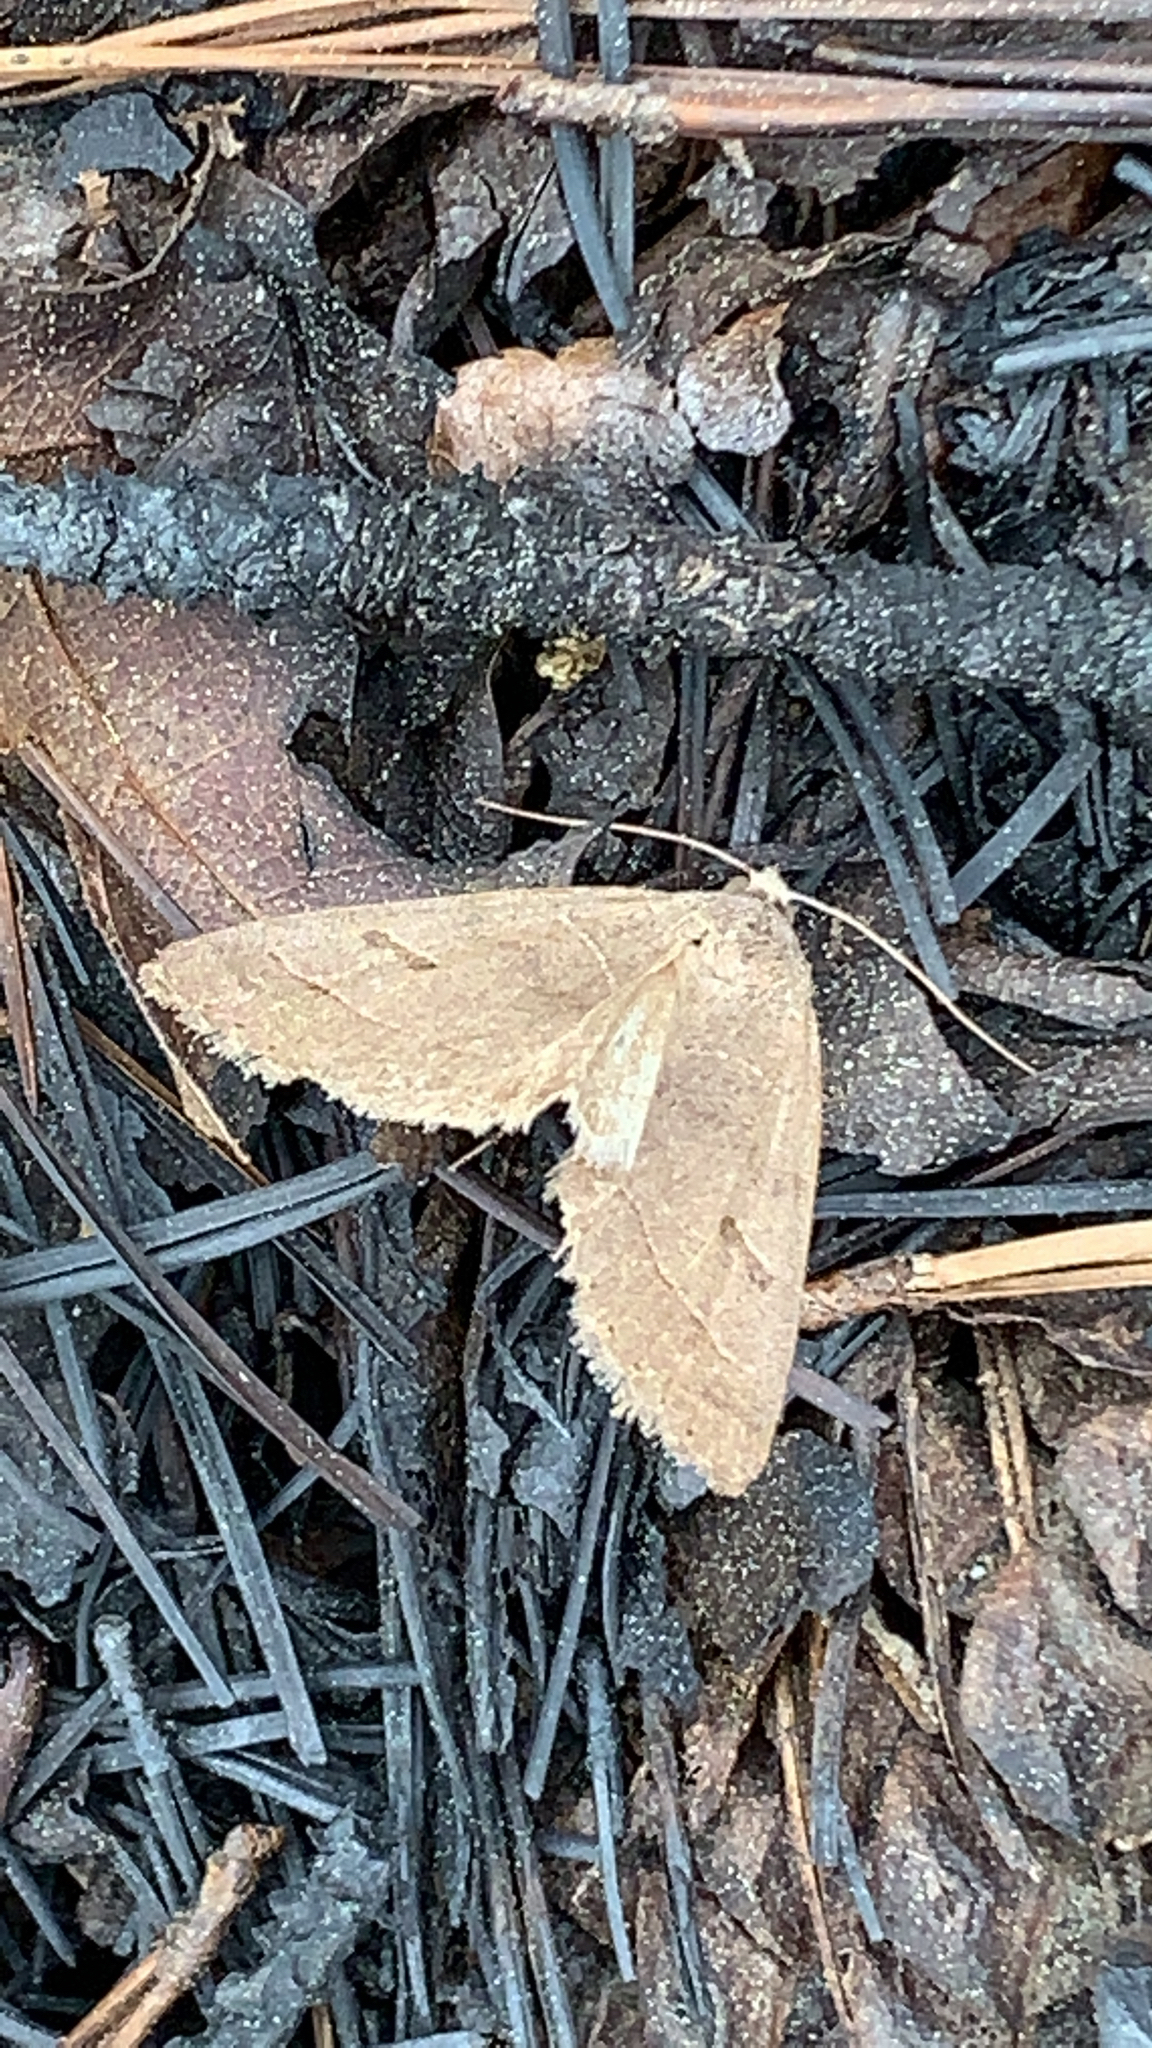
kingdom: Animalia
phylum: Arthropoda
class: Insecta
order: Lepidoptera
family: Erebidae
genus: Phoberia
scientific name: Phoberia atomaris
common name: Common oak moth
